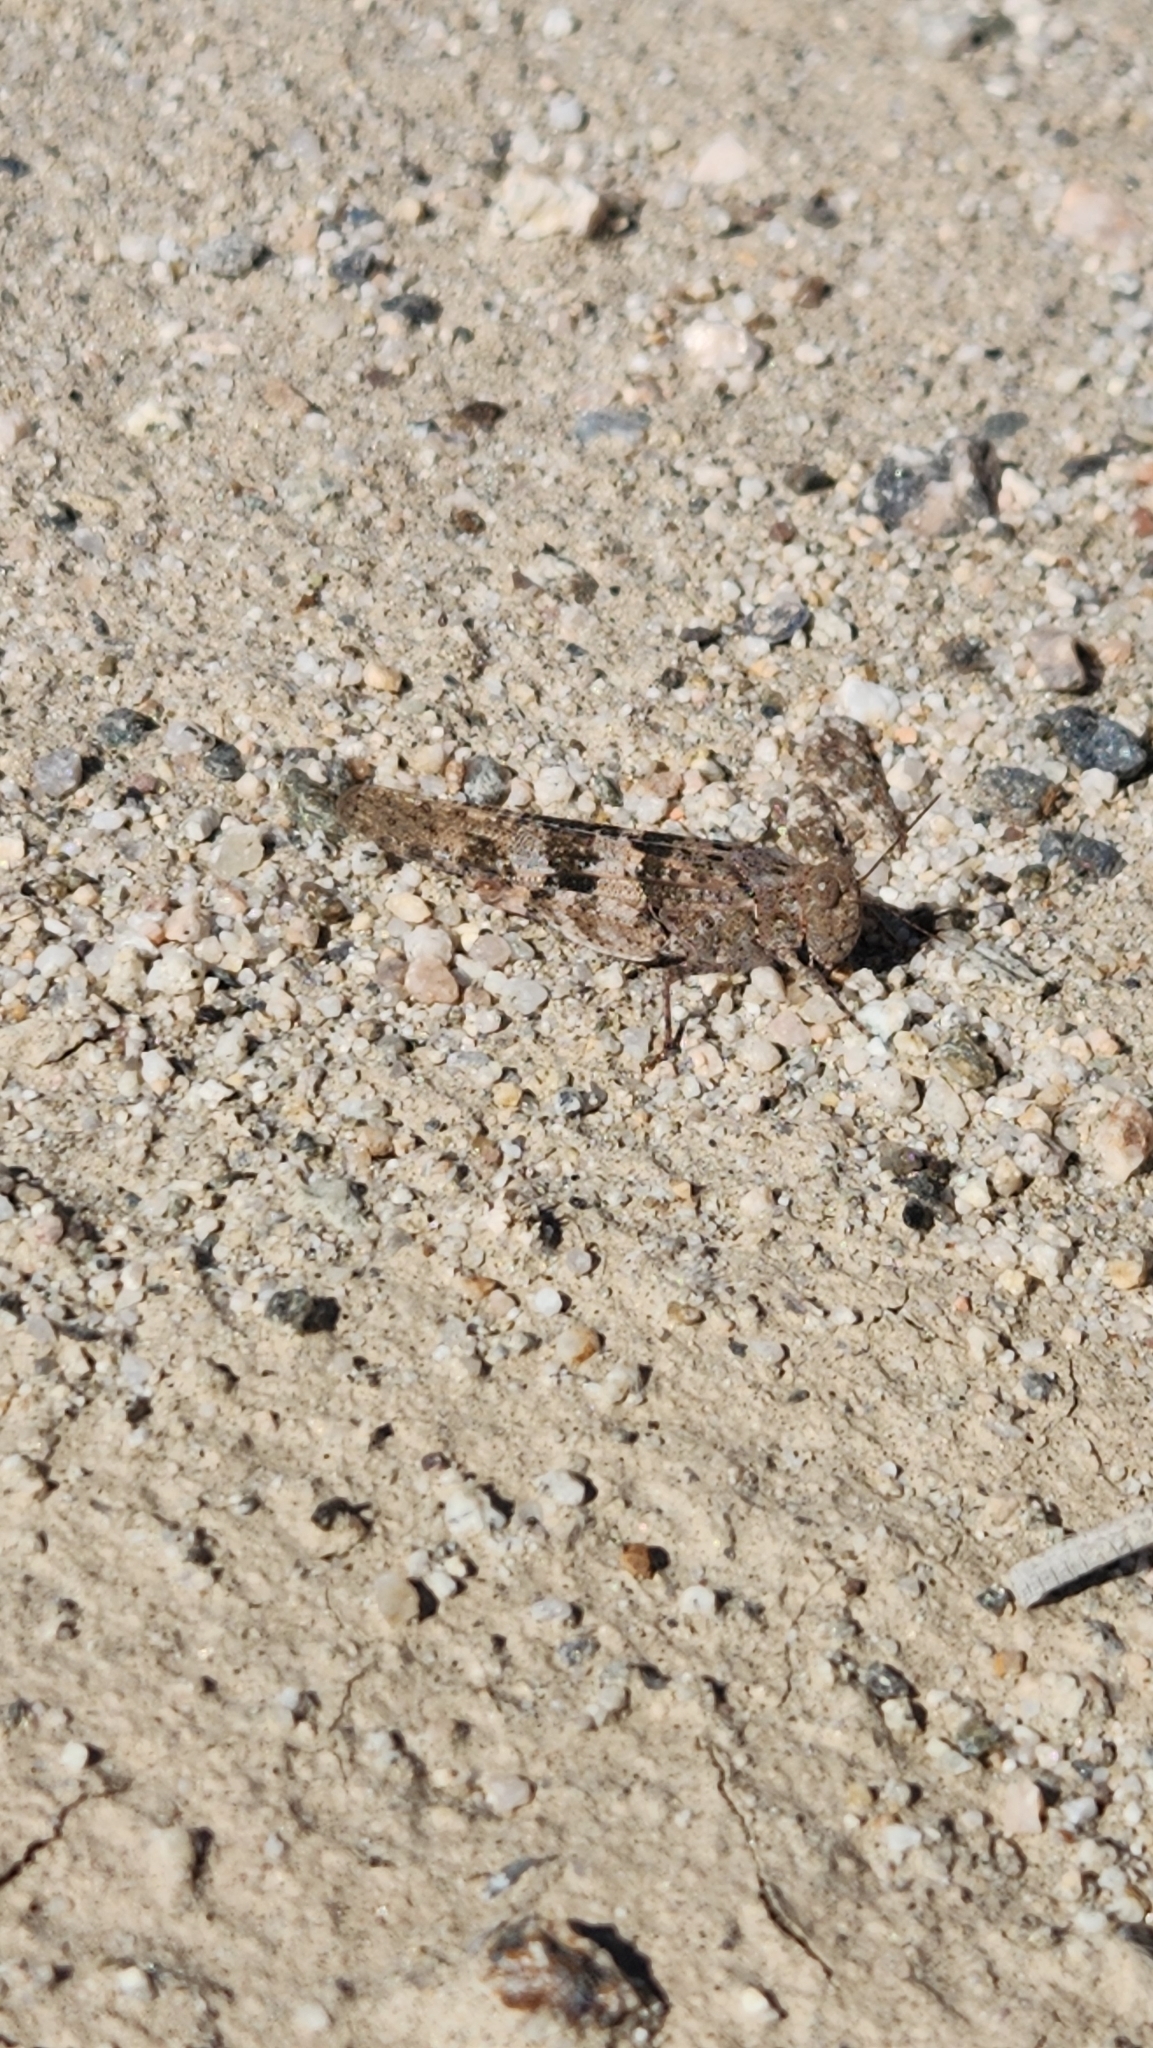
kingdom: Animalia
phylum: Arthropoda
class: Insecta
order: Orthoptera
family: Acrididae
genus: Trimerotropis
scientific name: Trimerotropis pallidipennis
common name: Pallid-winged grasshopper
